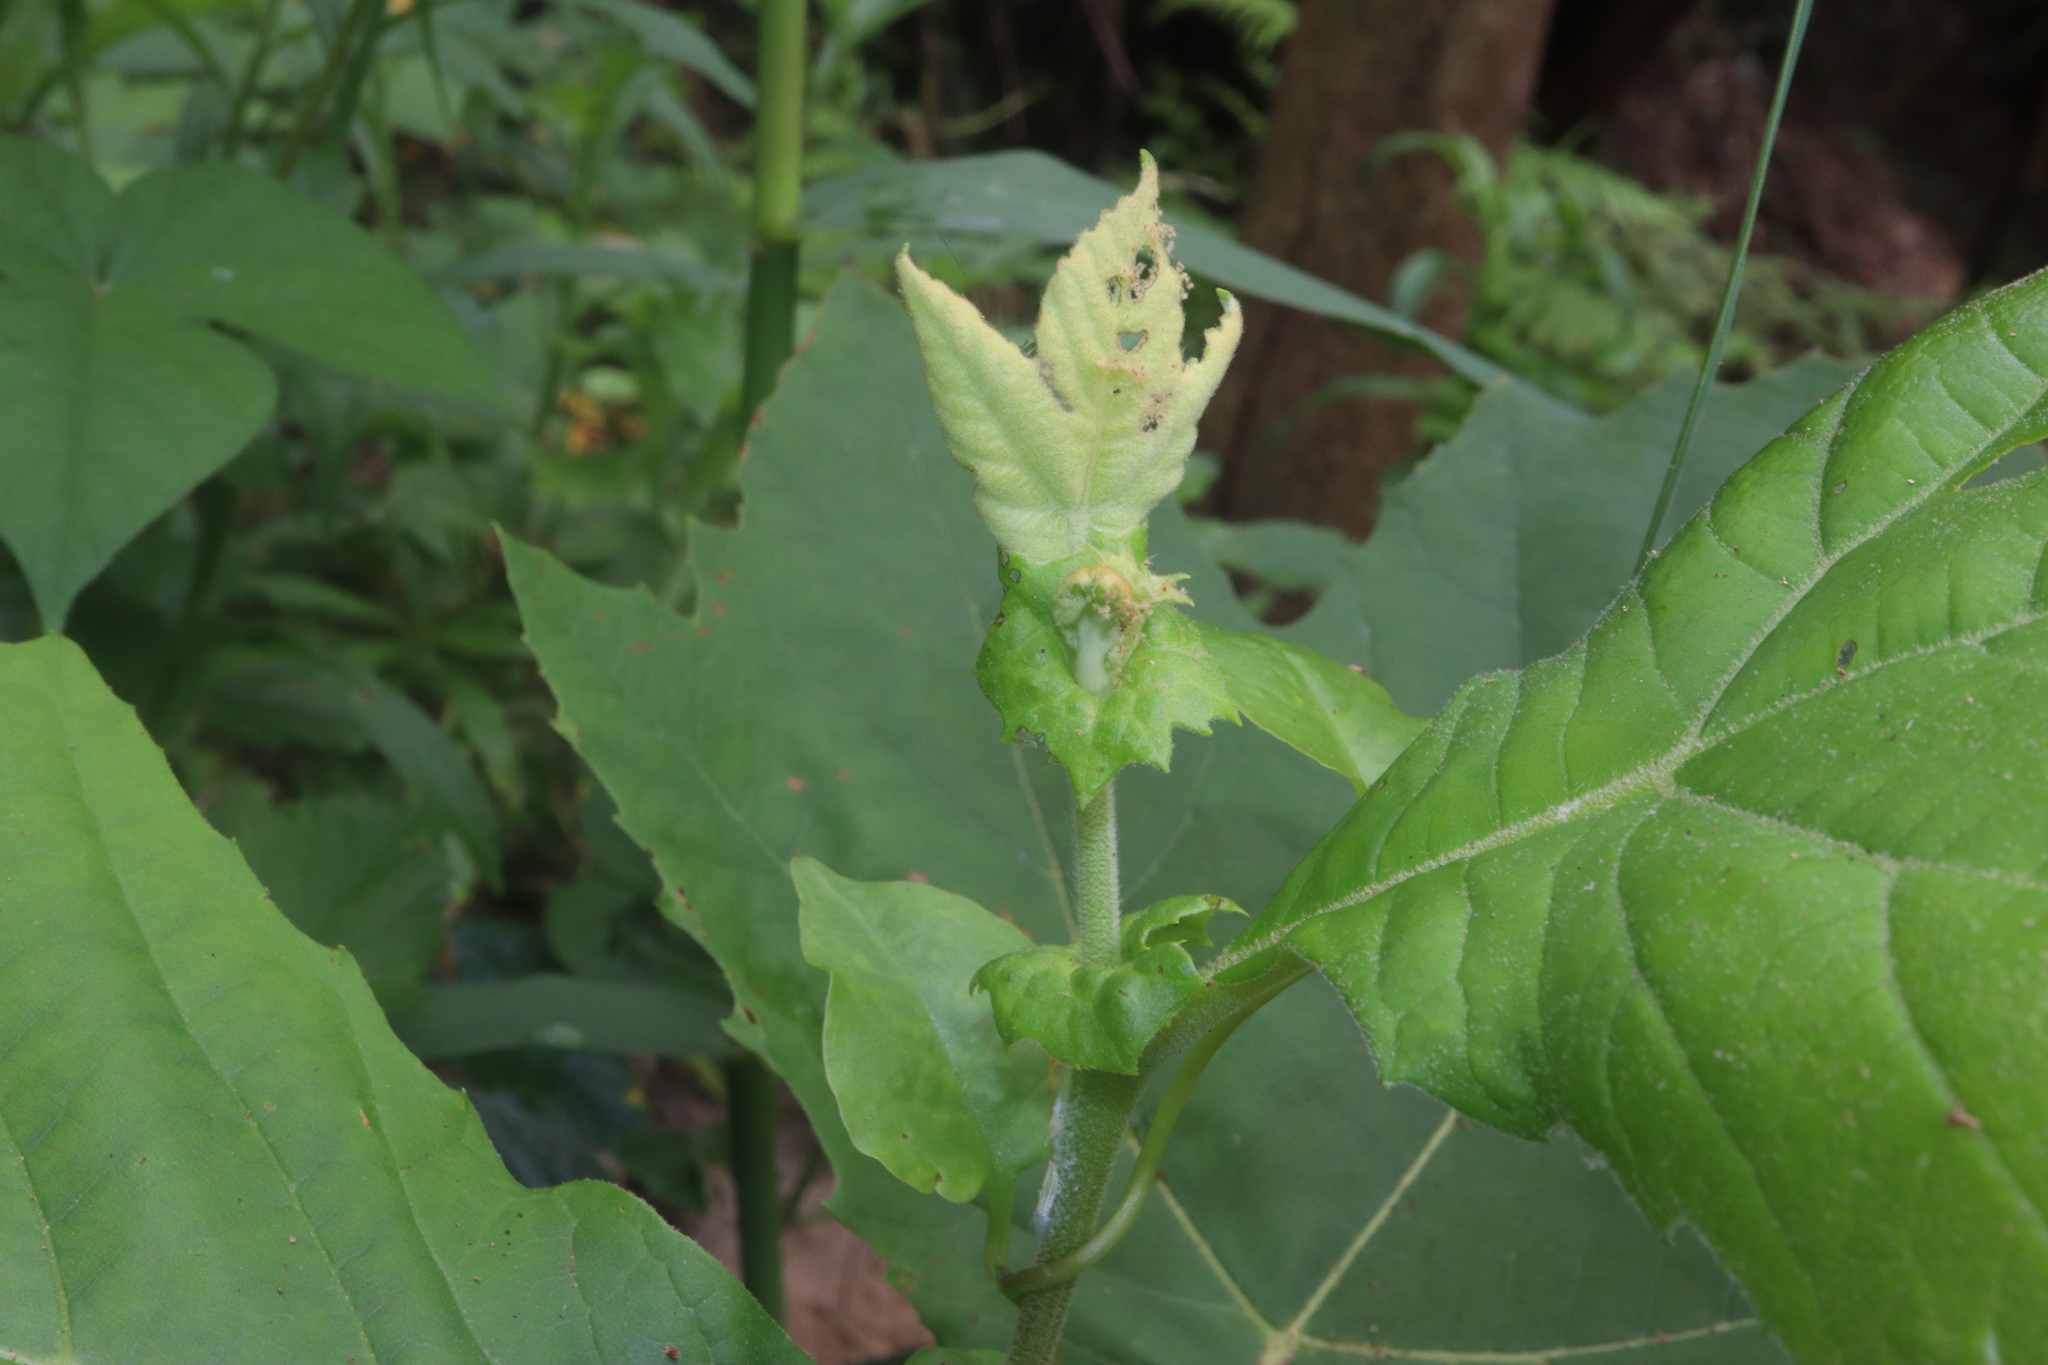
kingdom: Plantae
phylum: Tracheophyta
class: Magnoliopsida
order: Proteales
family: Platanaceae
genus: Platanus
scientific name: Platanus hispanica
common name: London plane
